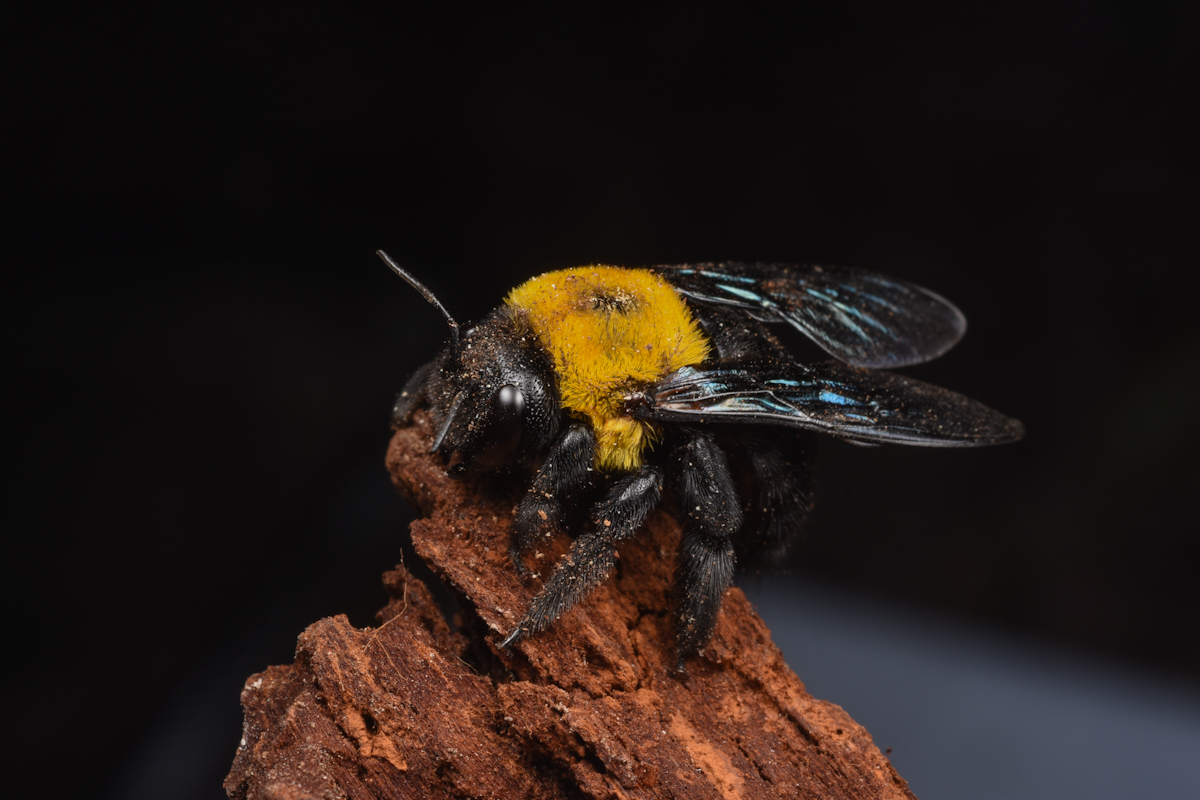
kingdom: Animalia
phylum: Arthropoda
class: Insecta
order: Hymenoptera
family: Apidae
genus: Xylocopa
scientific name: Xylocopa appendiculata
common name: Japanese carpenter bee
